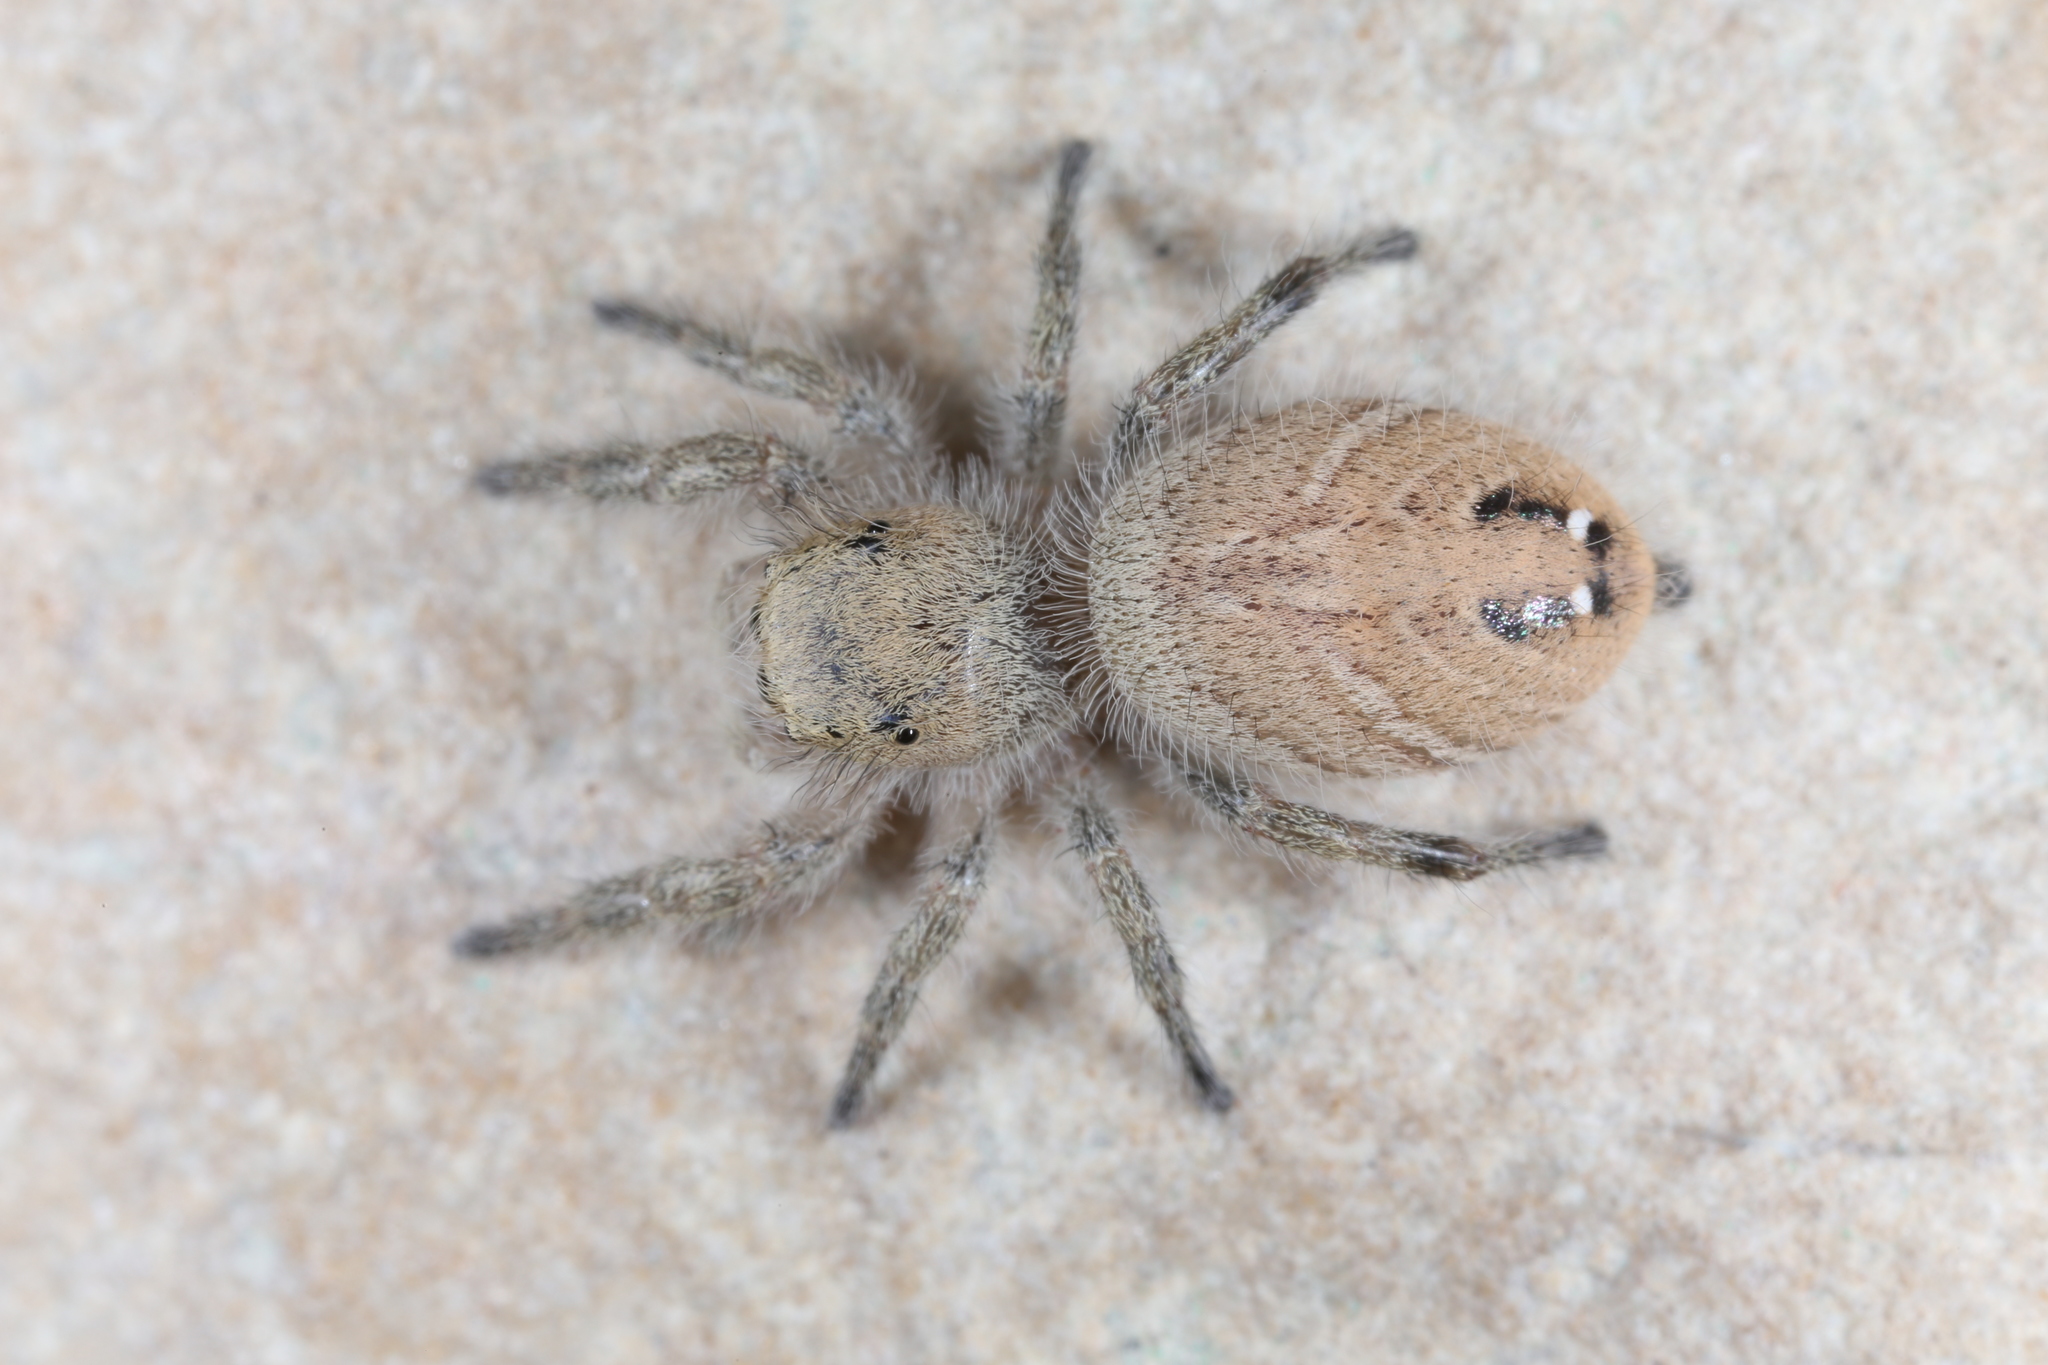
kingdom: Animalia
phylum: Arthropoda
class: Arachnida
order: Araneae
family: Salticidae
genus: Phidippus
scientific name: Phidippus tux
